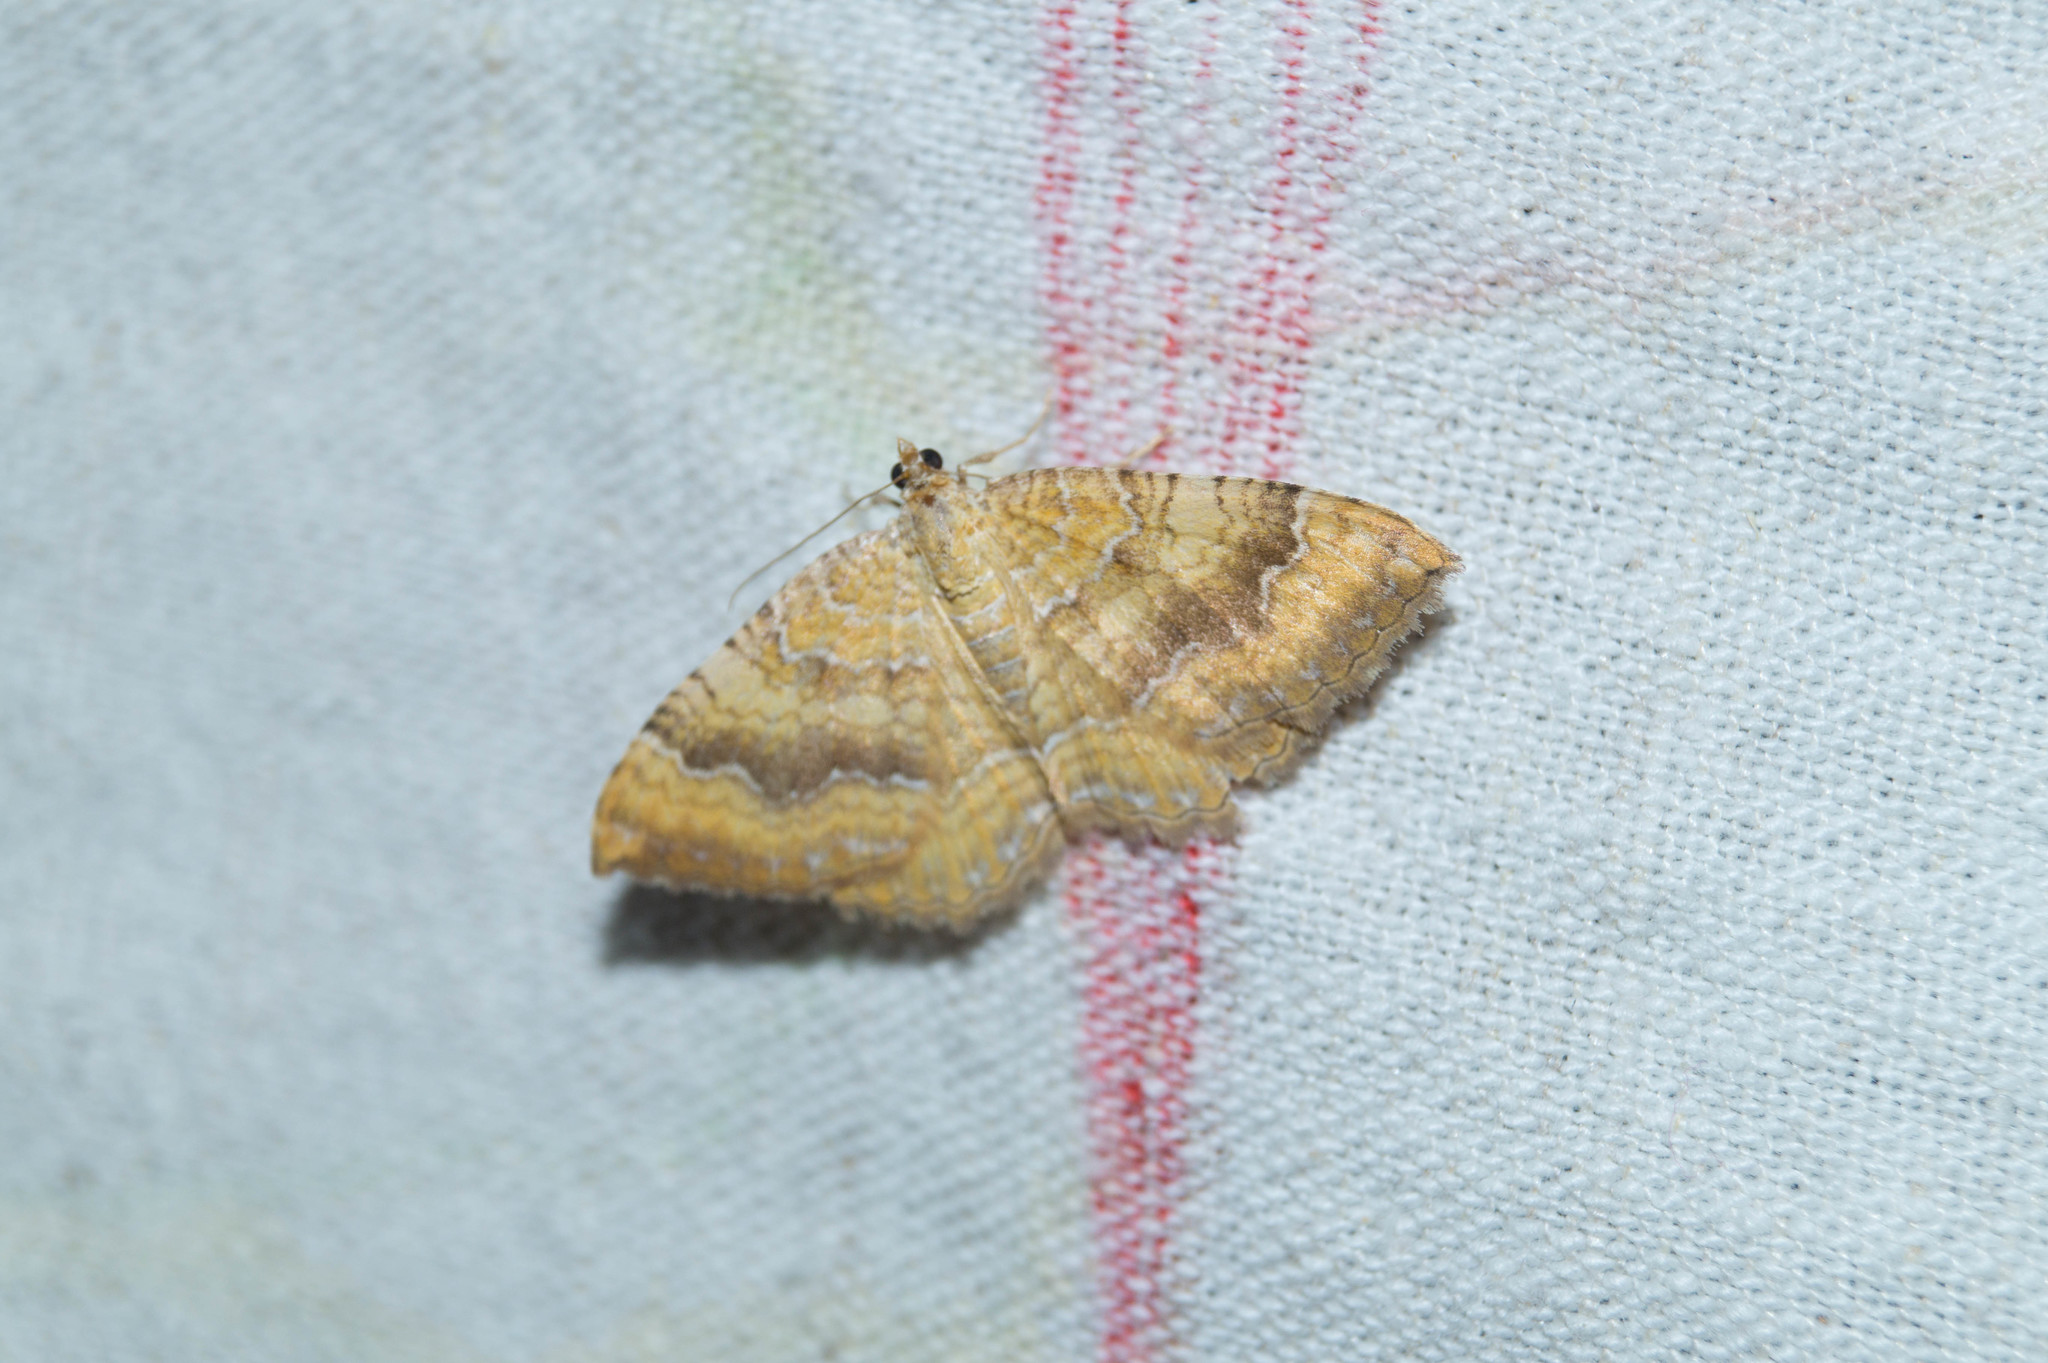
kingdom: Animalia
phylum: Arthropoda
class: Insecta
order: Lepidoptera
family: Geometridae
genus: Camptogramma
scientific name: Camptogramma bilineata
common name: Yellow shell
